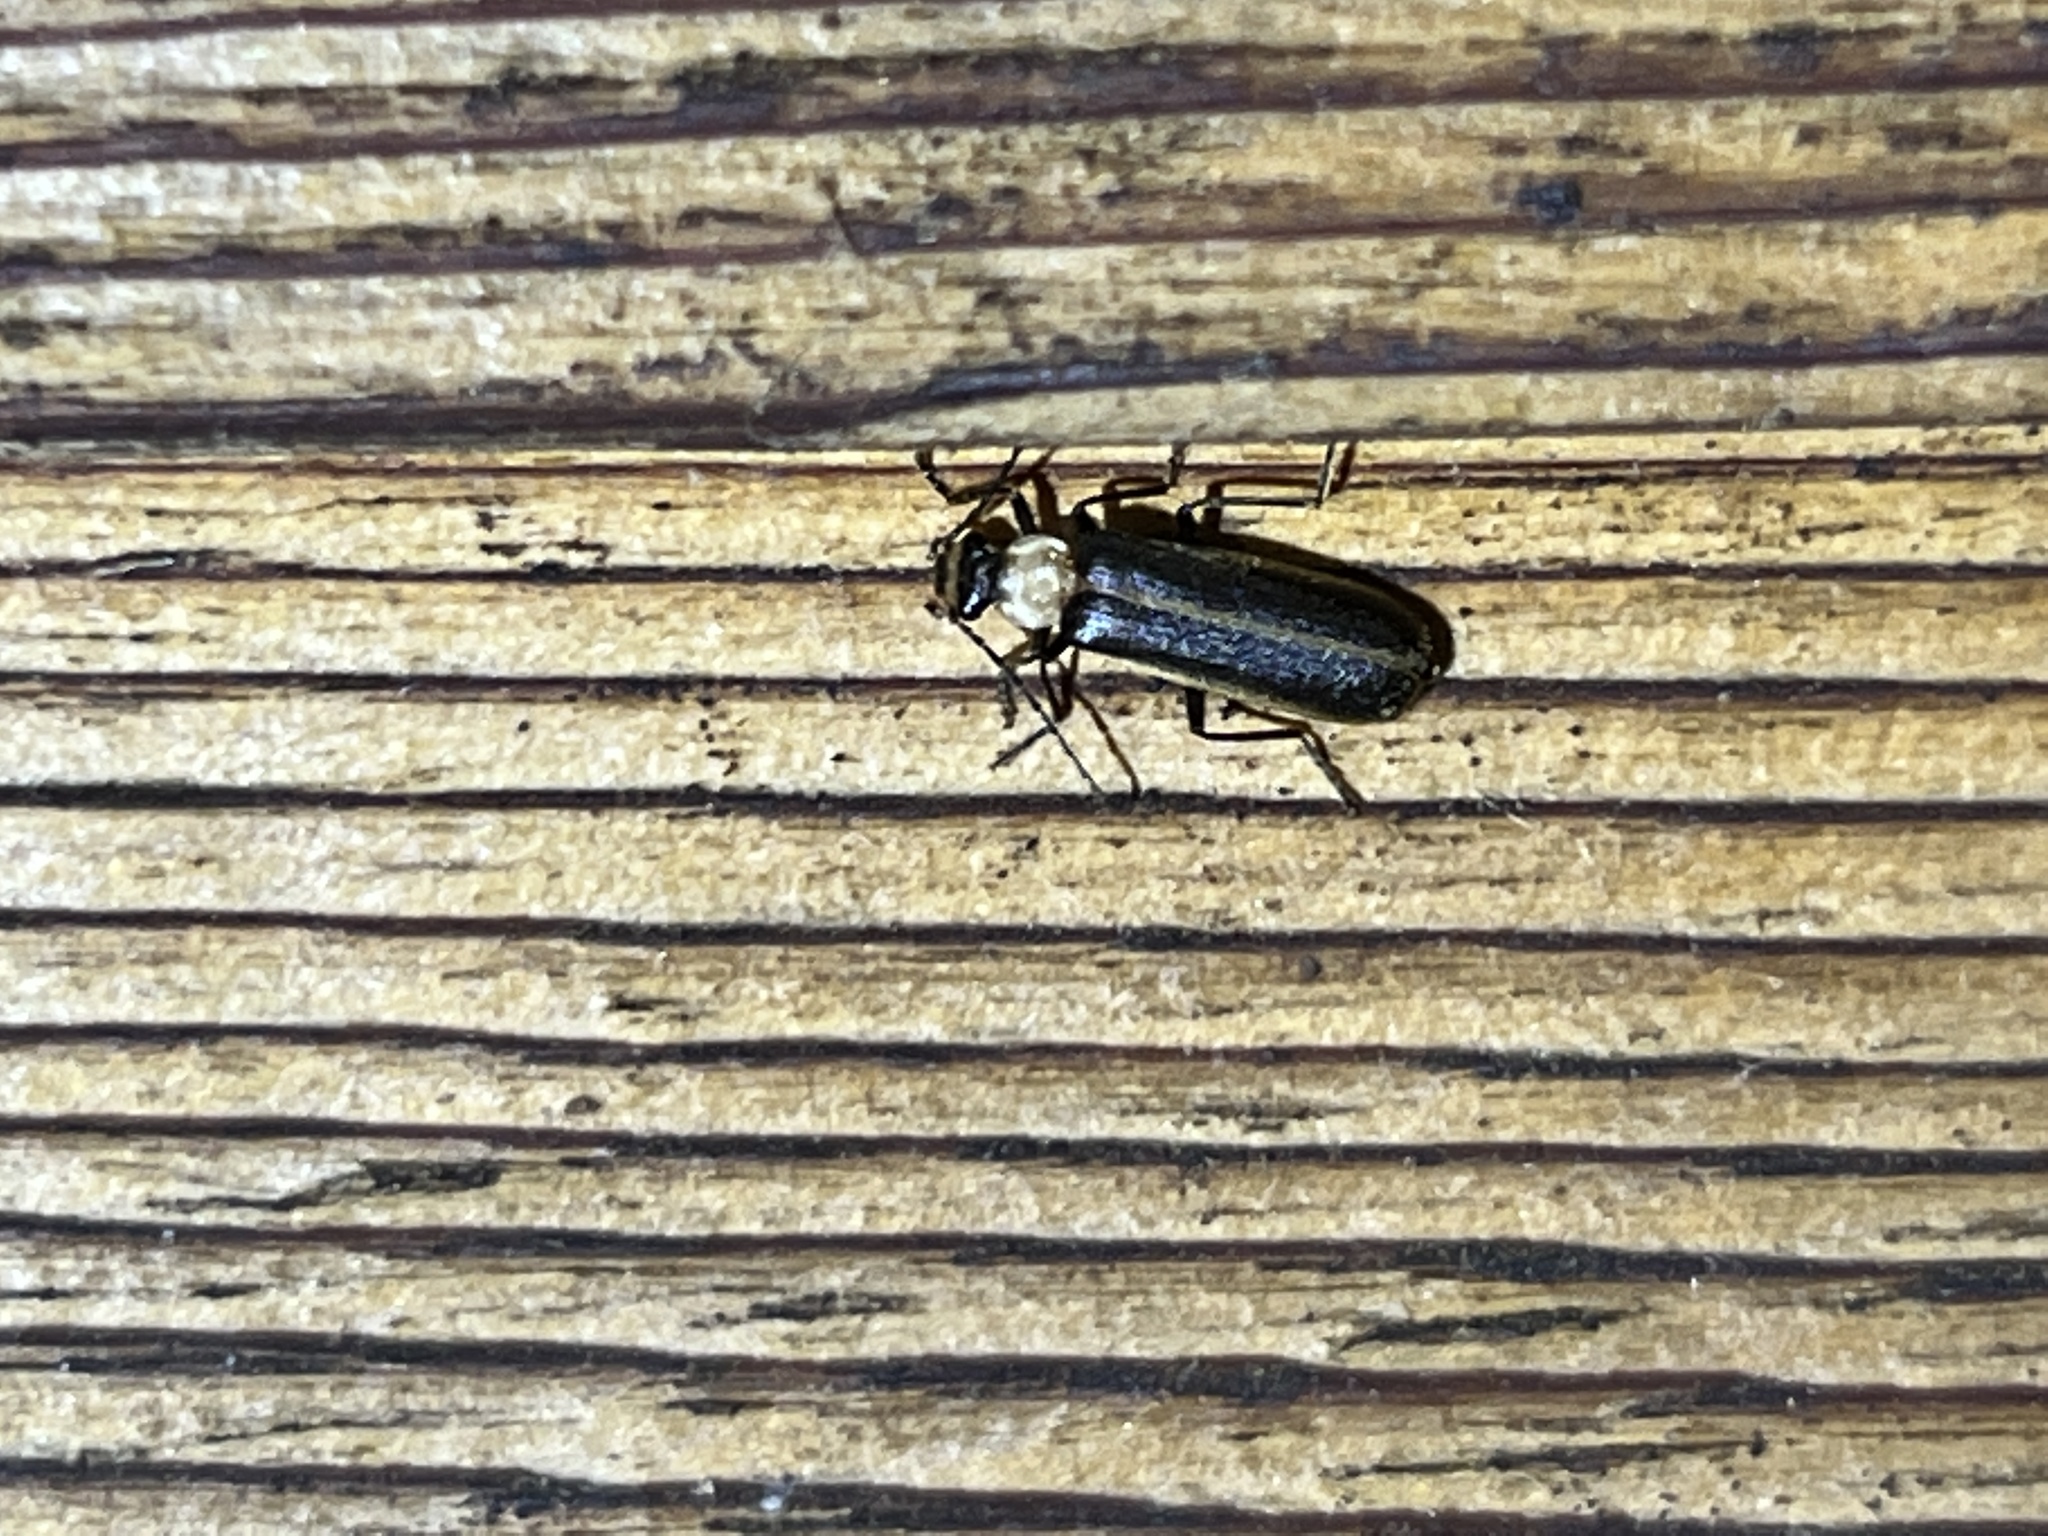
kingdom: Animalia
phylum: Arthropoda
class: Insecta
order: Coleoptera
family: Cantharidae
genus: Podabrus
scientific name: Podabrus flavicollis
